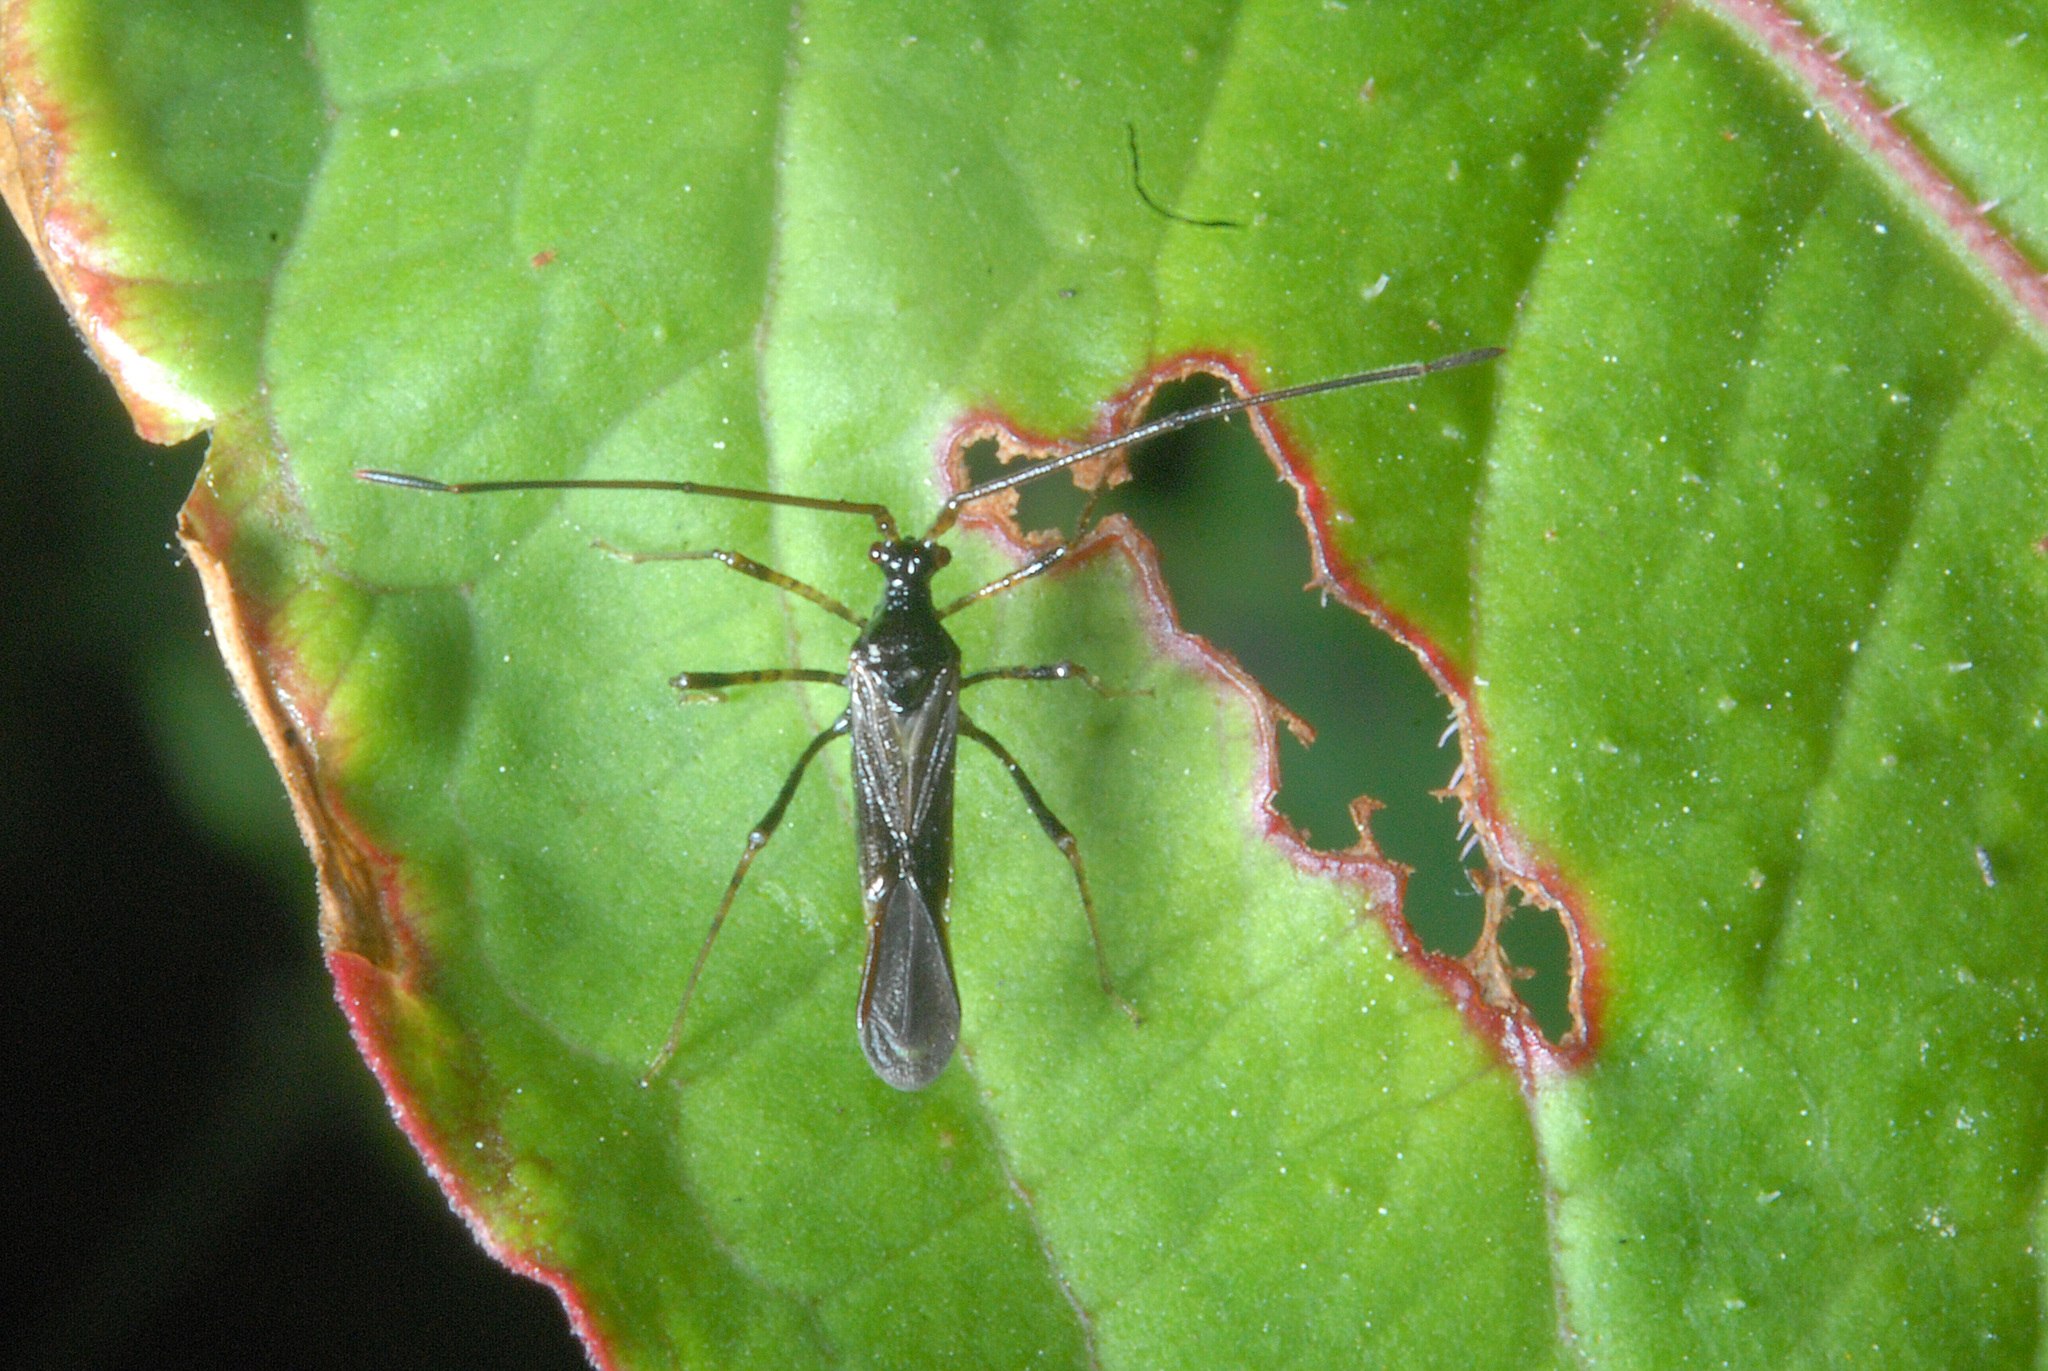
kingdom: Animalia
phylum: Arthropoda
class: Insecta
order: Hemiptera
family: Miridae
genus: Helopeltis
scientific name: Helopeltis cinchonae
